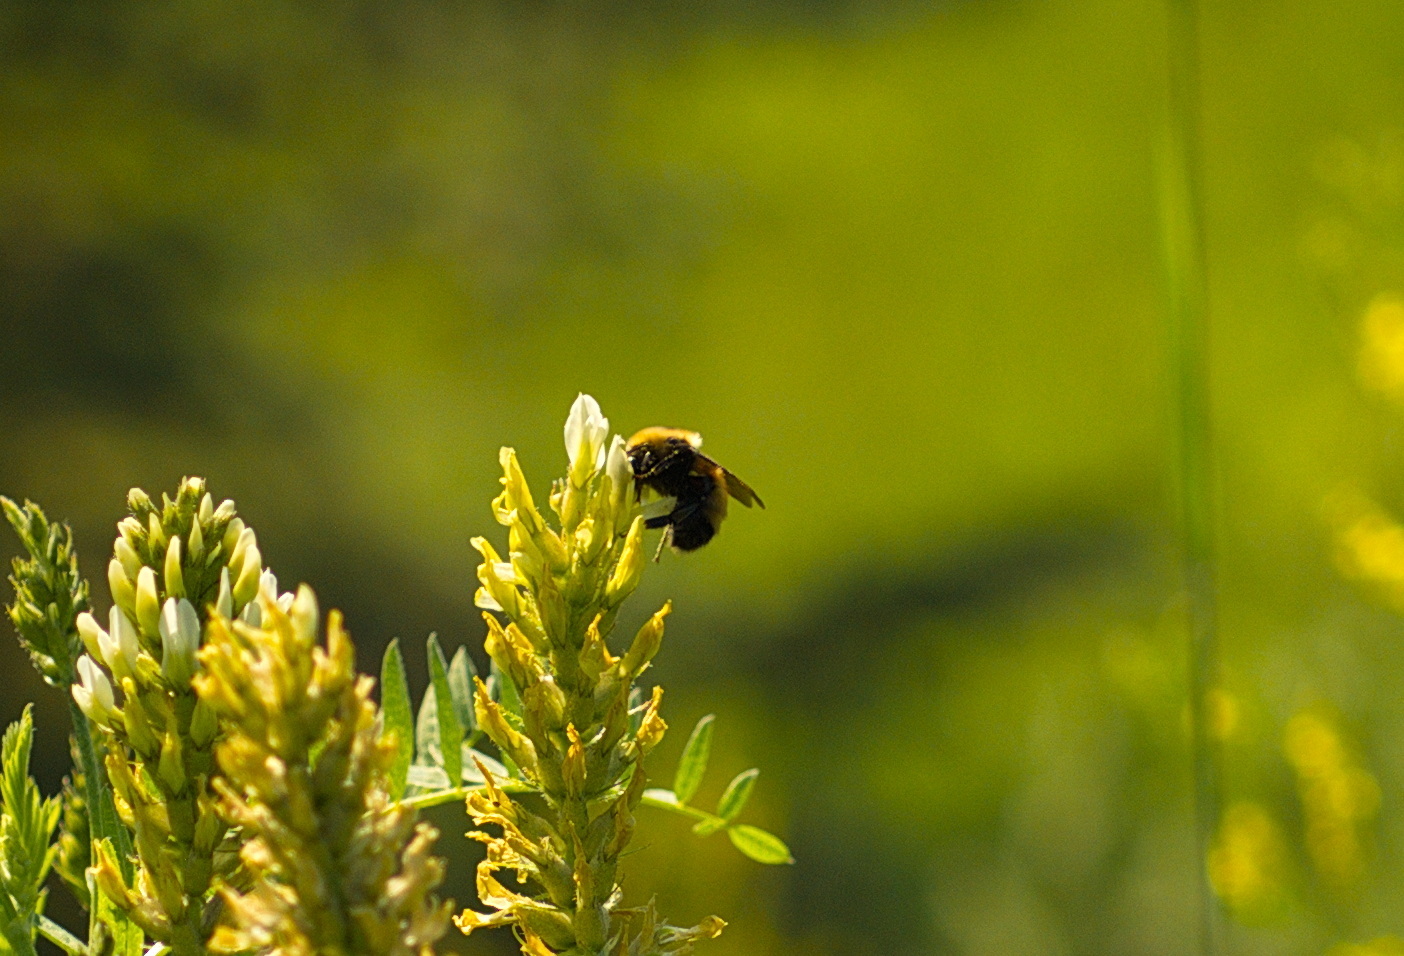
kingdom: Animalia
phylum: Arthropoda
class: Insecta
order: Hymenoptera
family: Apidae
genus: Bombus
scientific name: Bombus nevadensis
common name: Nevada bumble bee
